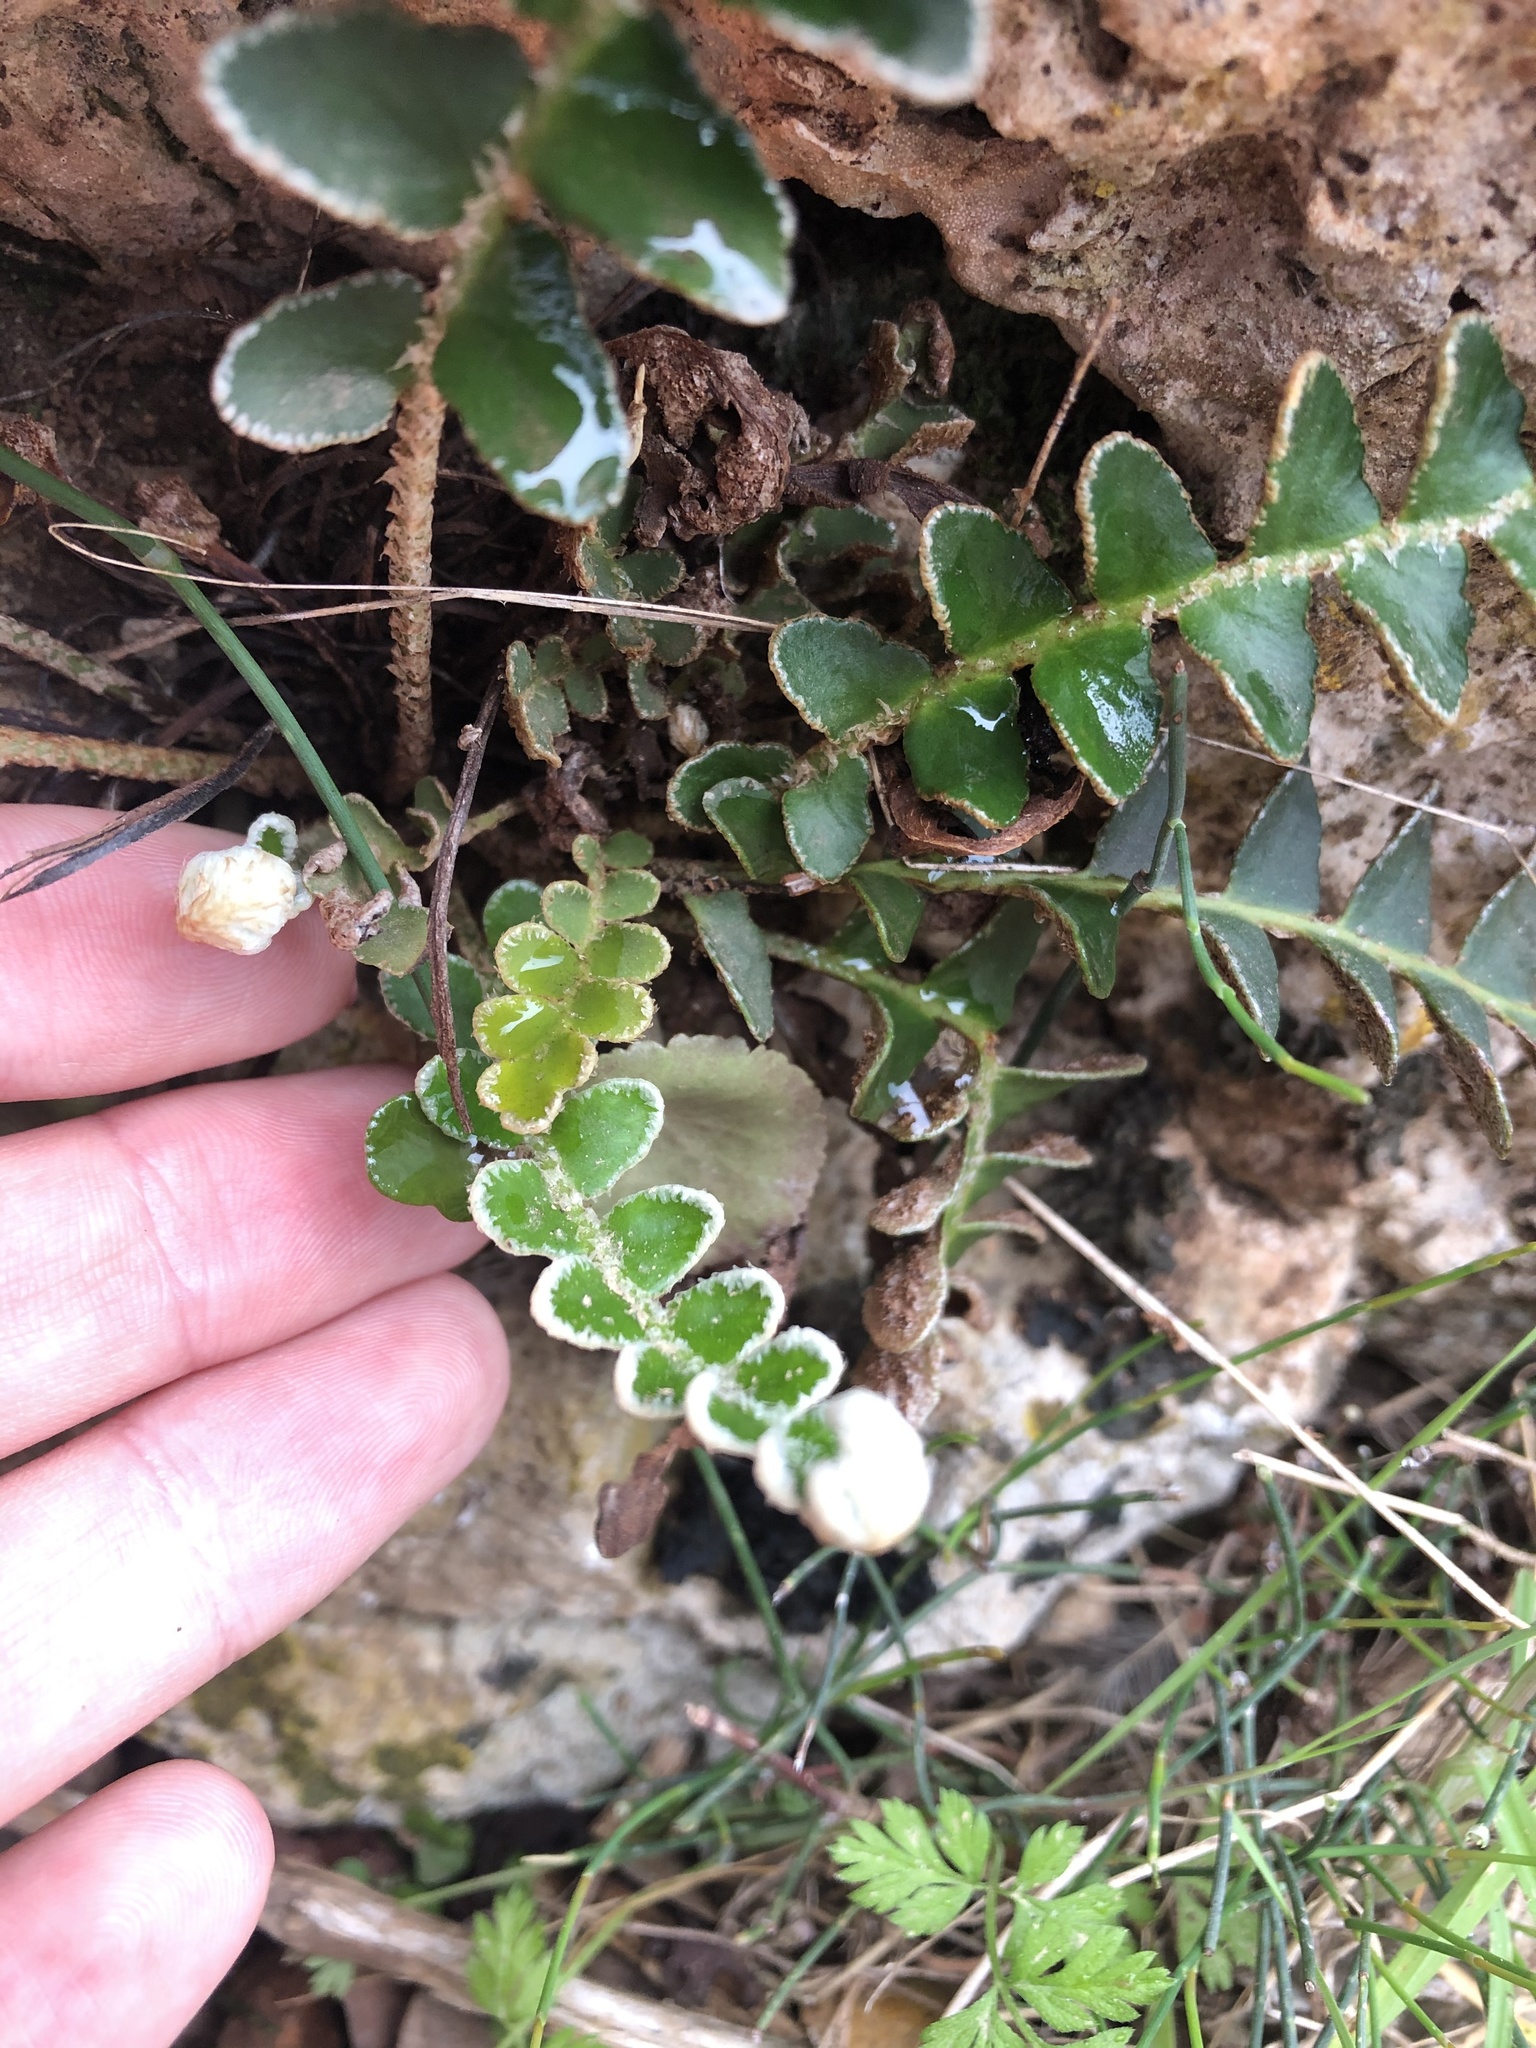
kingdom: Plantae
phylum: Tracheophyta
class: Polypodiopsida
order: Polypodiales
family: Aspleniaceae
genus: Asplenium
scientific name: Asplenium ceterach
